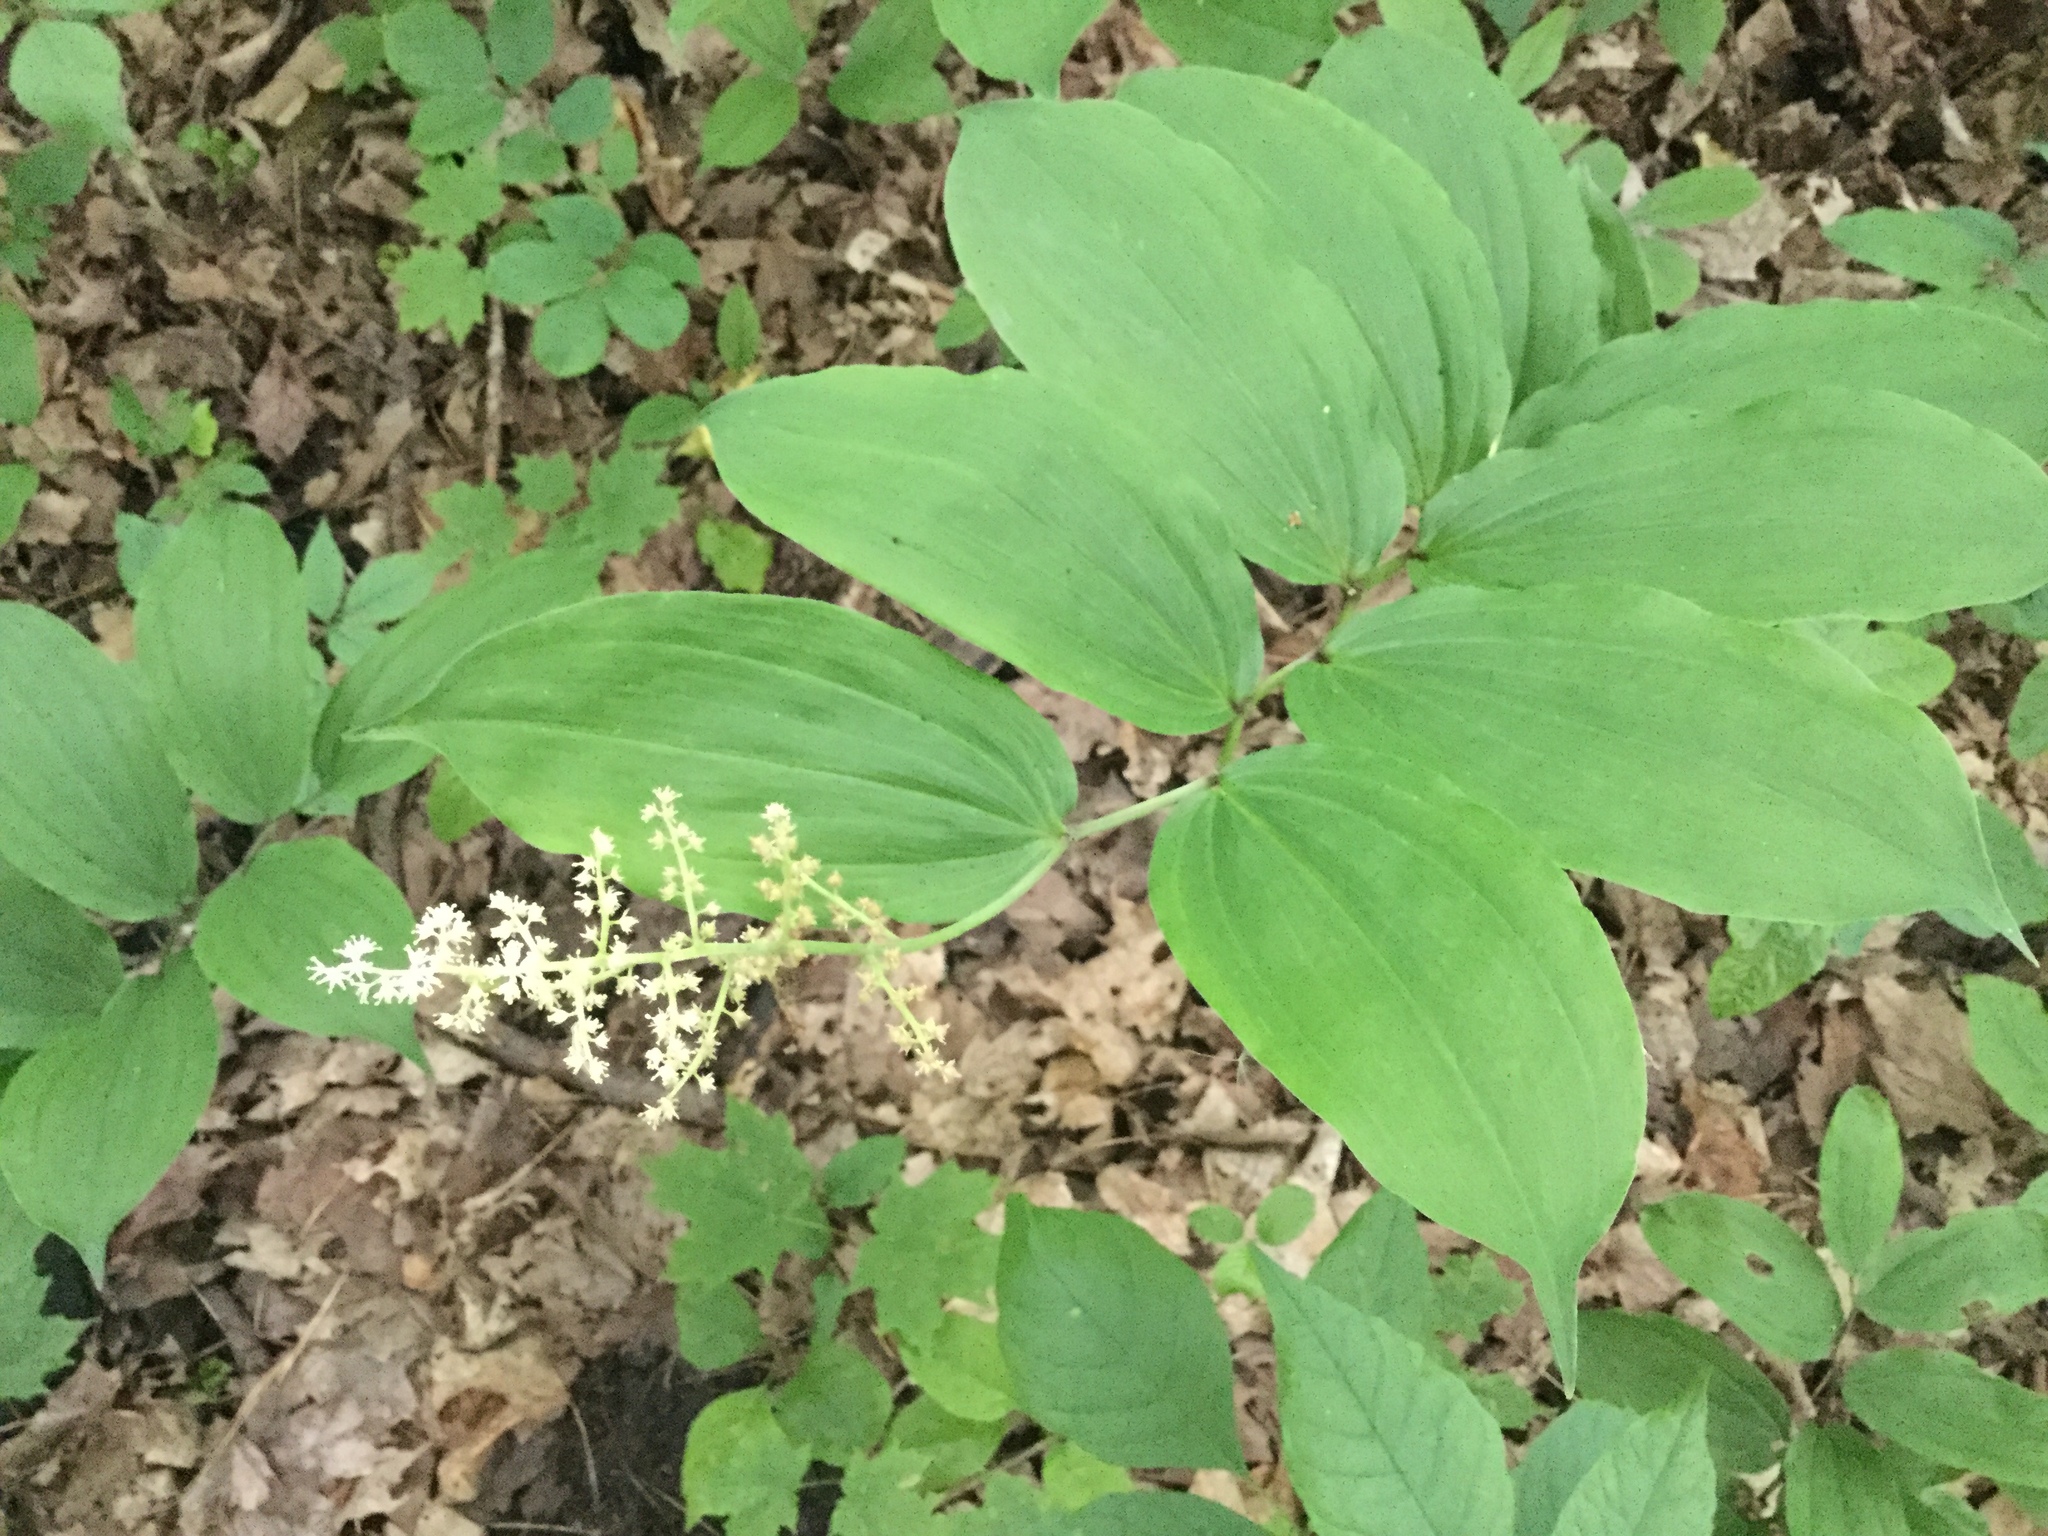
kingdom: Plantae
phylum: Tracheophyta
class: Liliopsida
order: Asparagales
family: Asparagaceae
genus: Maianthemum
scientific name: Maianthemum racemosum
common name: False spikenard
